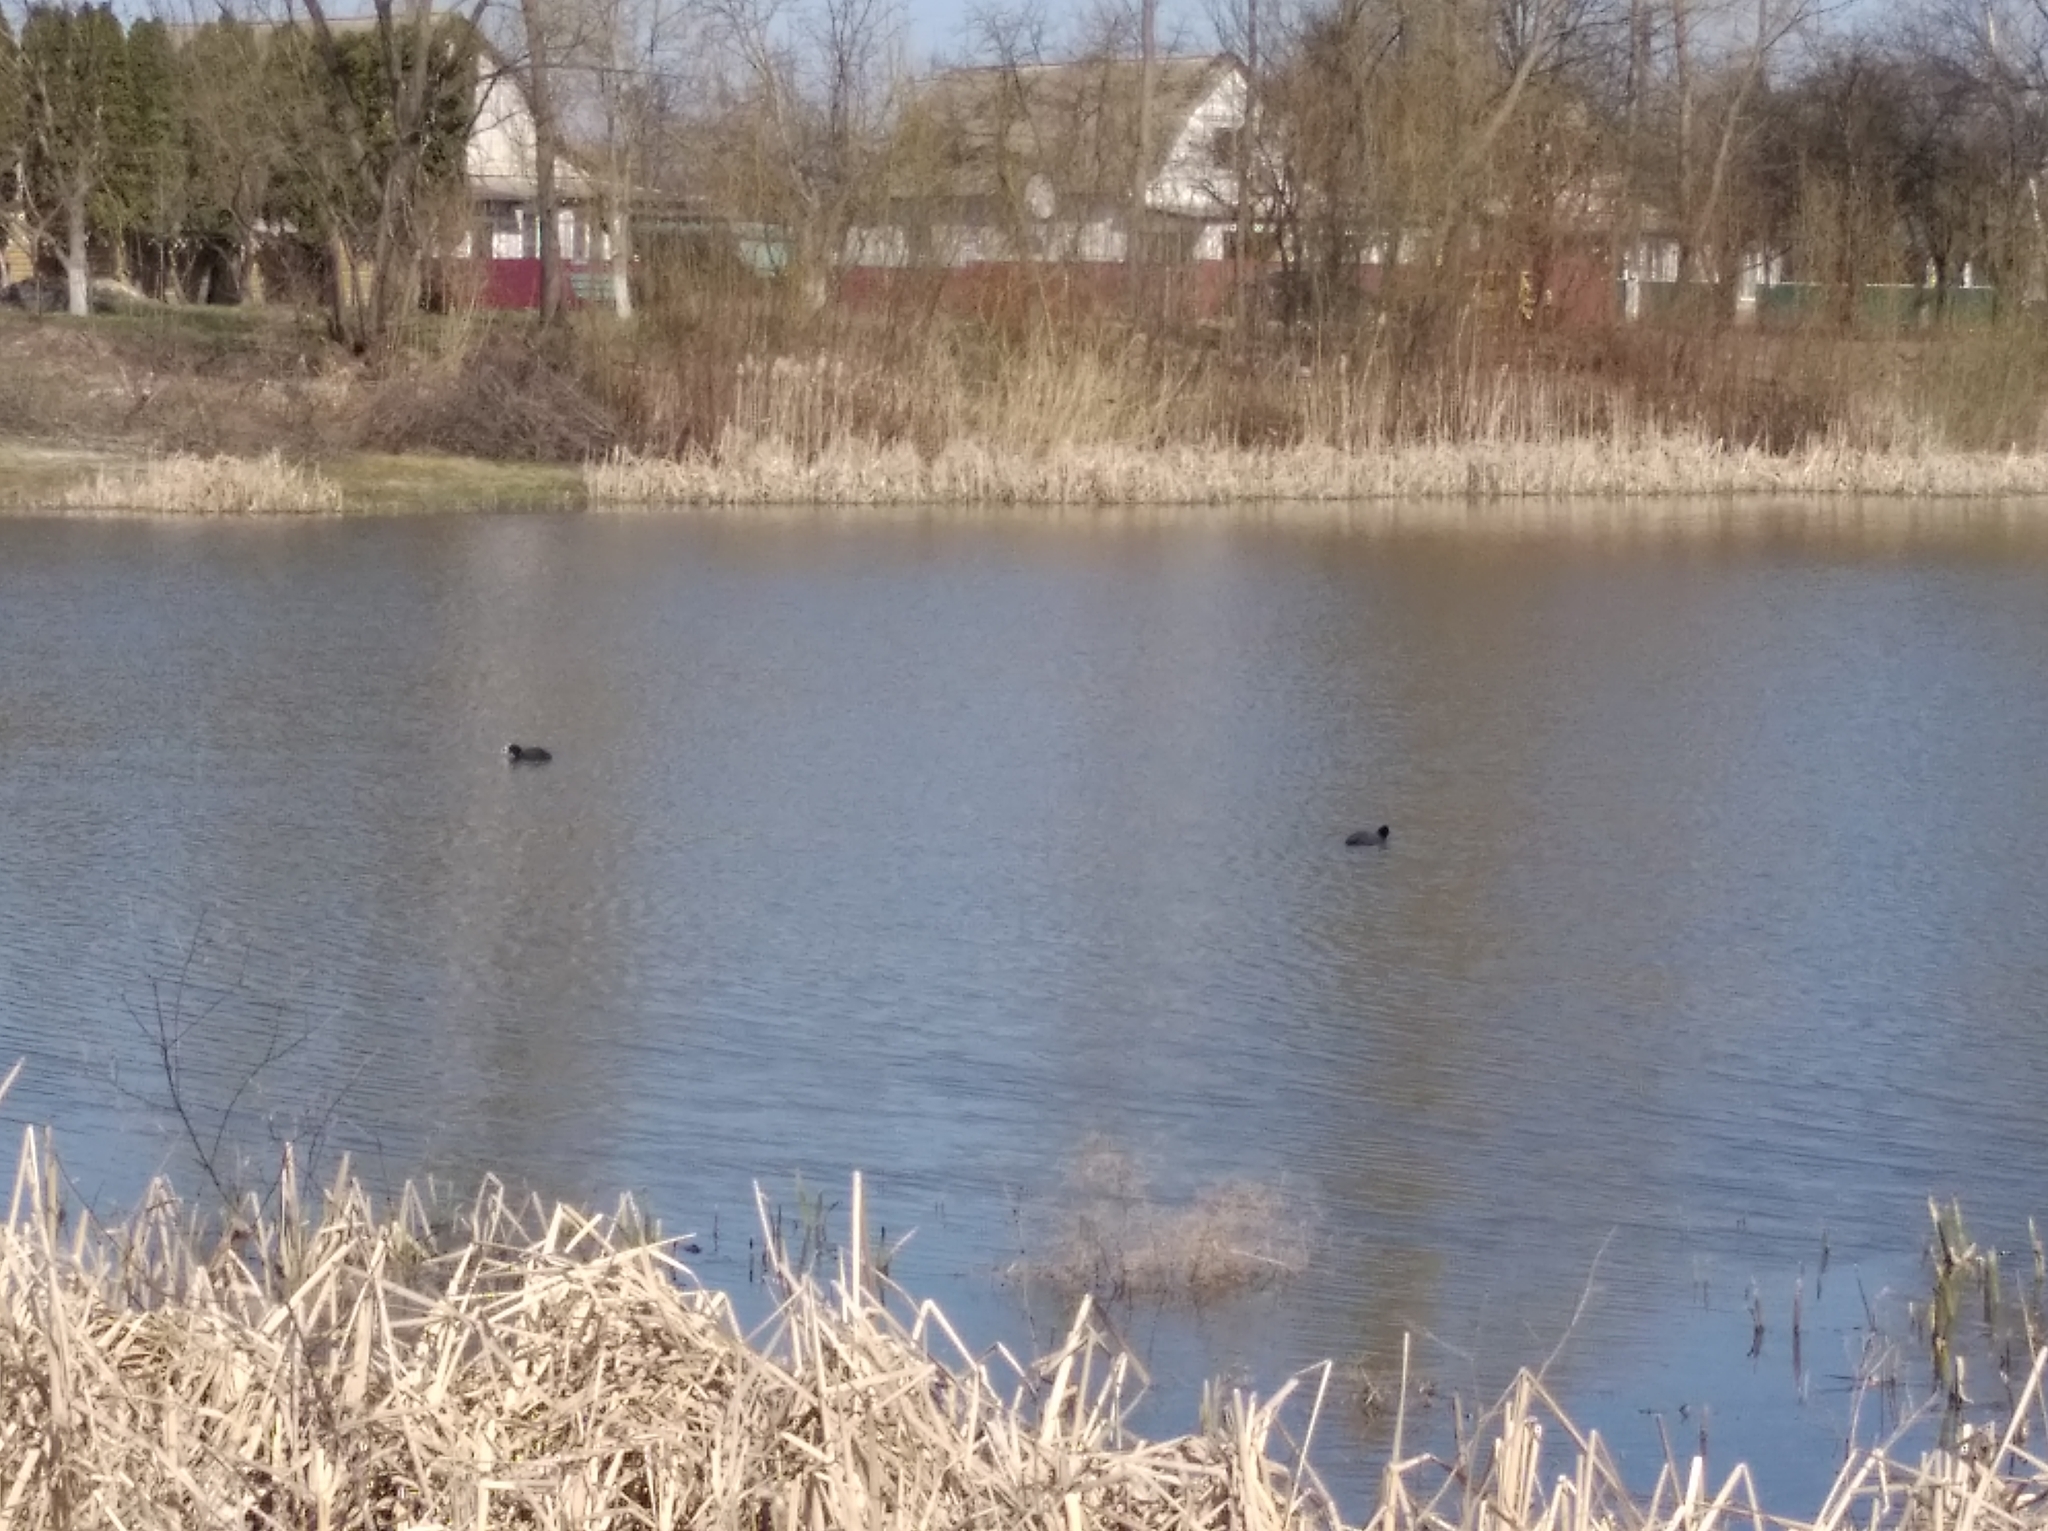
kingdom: Animalia
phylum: Chordata
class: Aves
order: Gruiformes
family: Rallidae
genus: Fulica
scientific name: Fulica atra
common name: Eurasian coot
